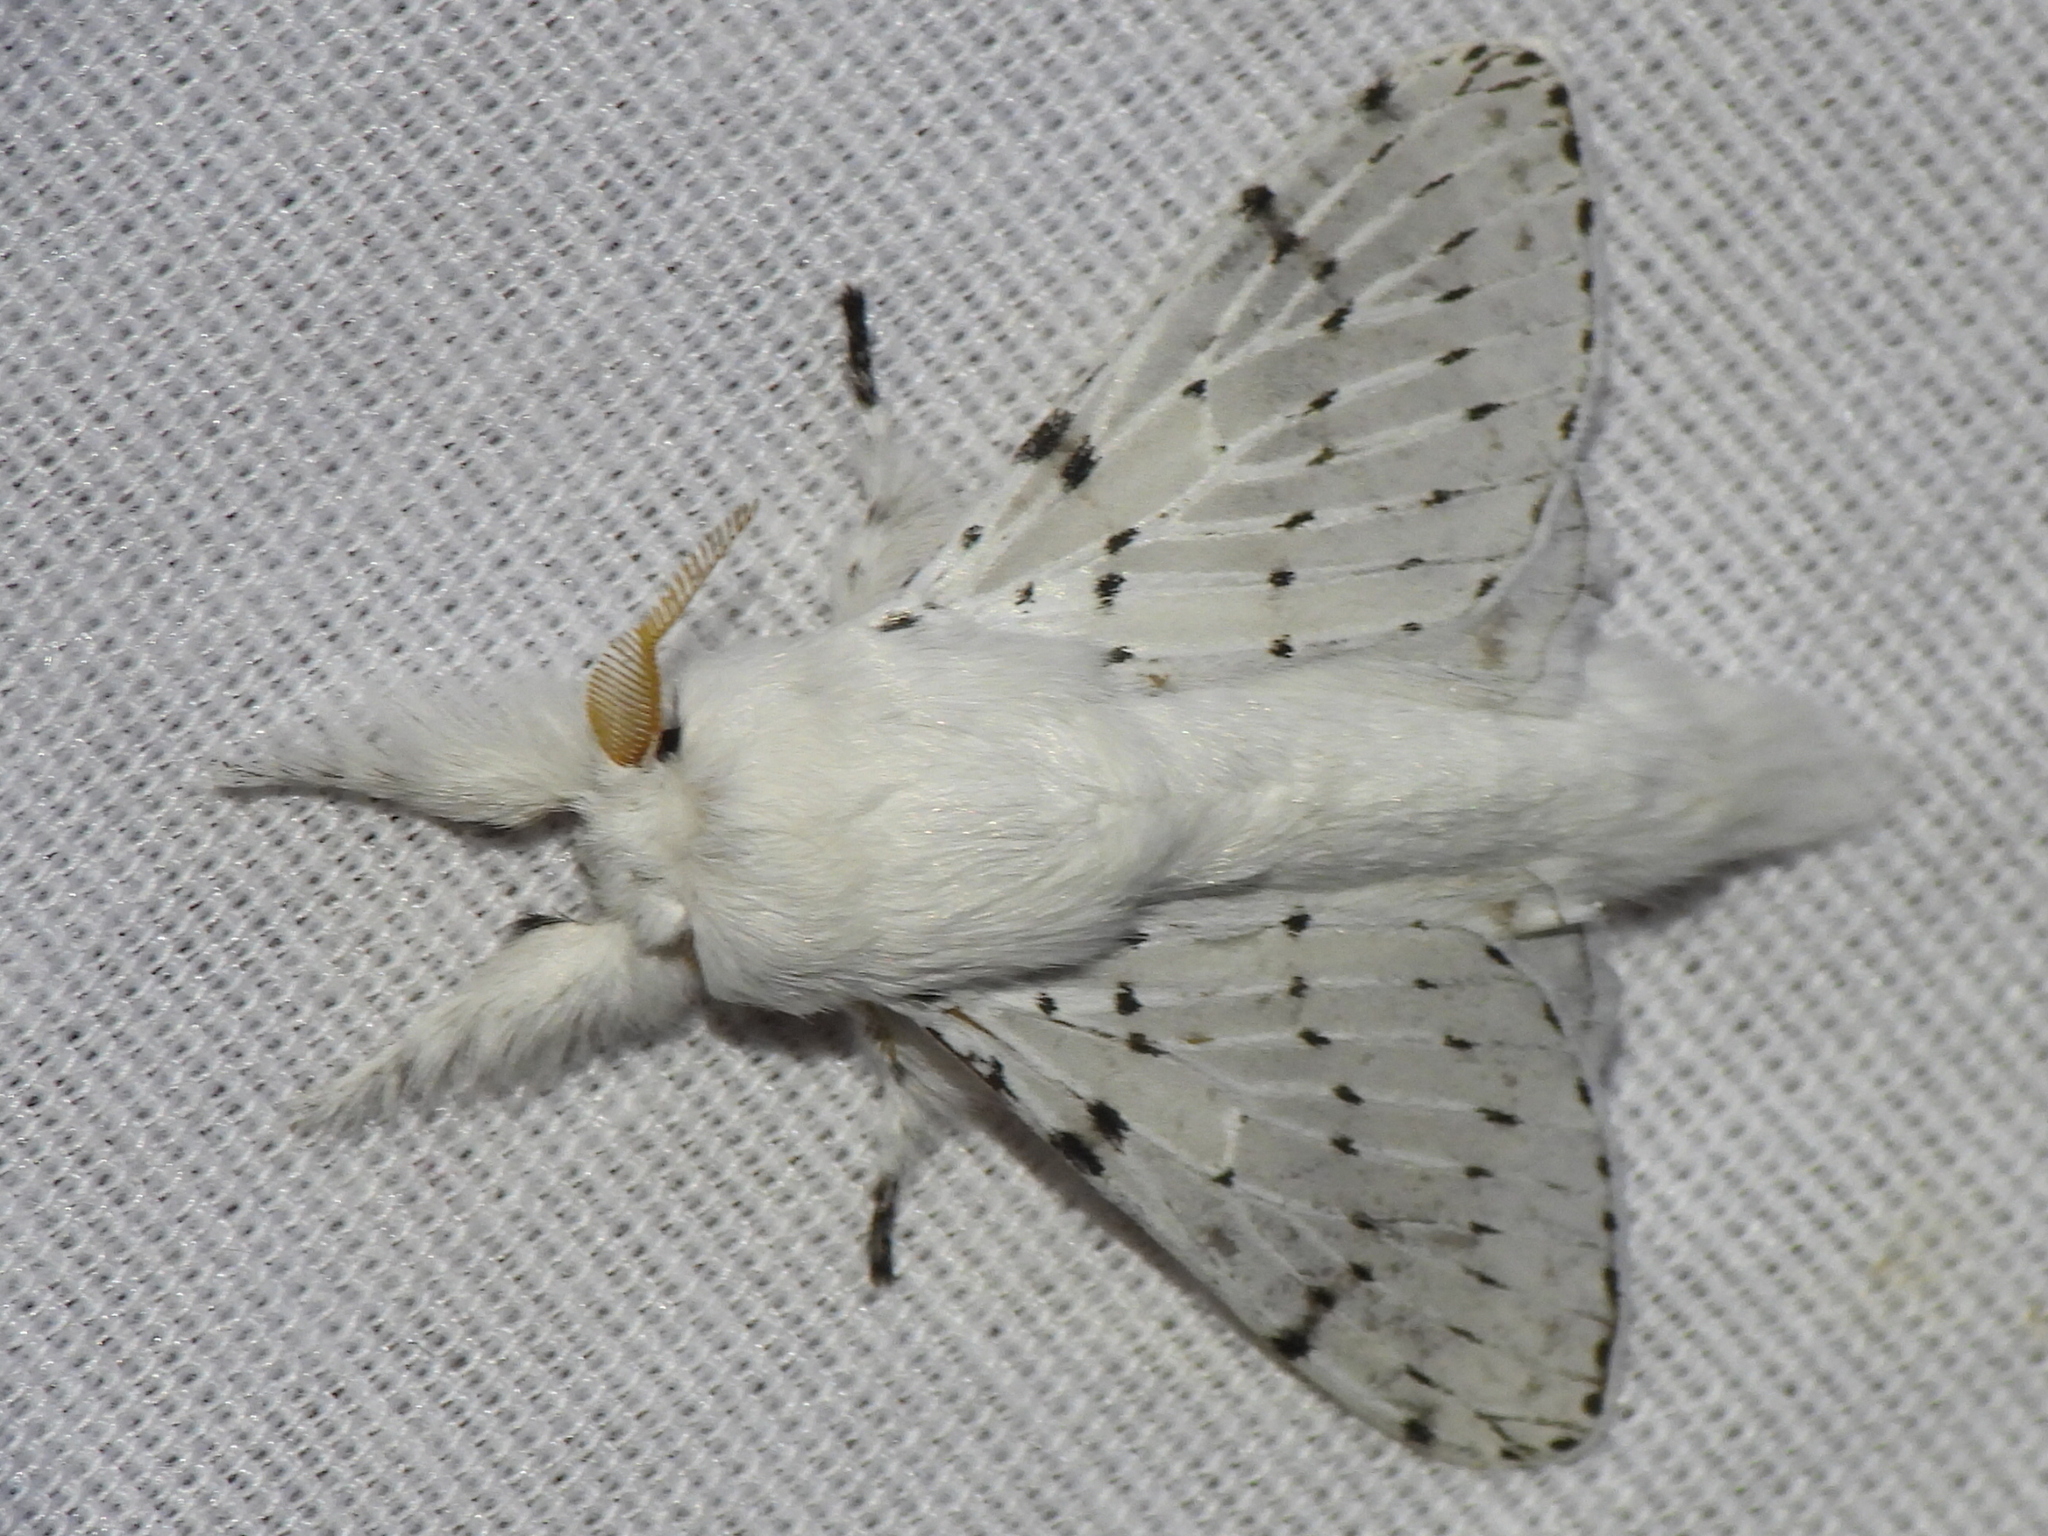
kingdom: Animalia
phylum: Arthropoda
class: Insecta
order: Lepidoptera
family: Lasiocampidae
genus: Artace
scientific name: Artace cribrarius
